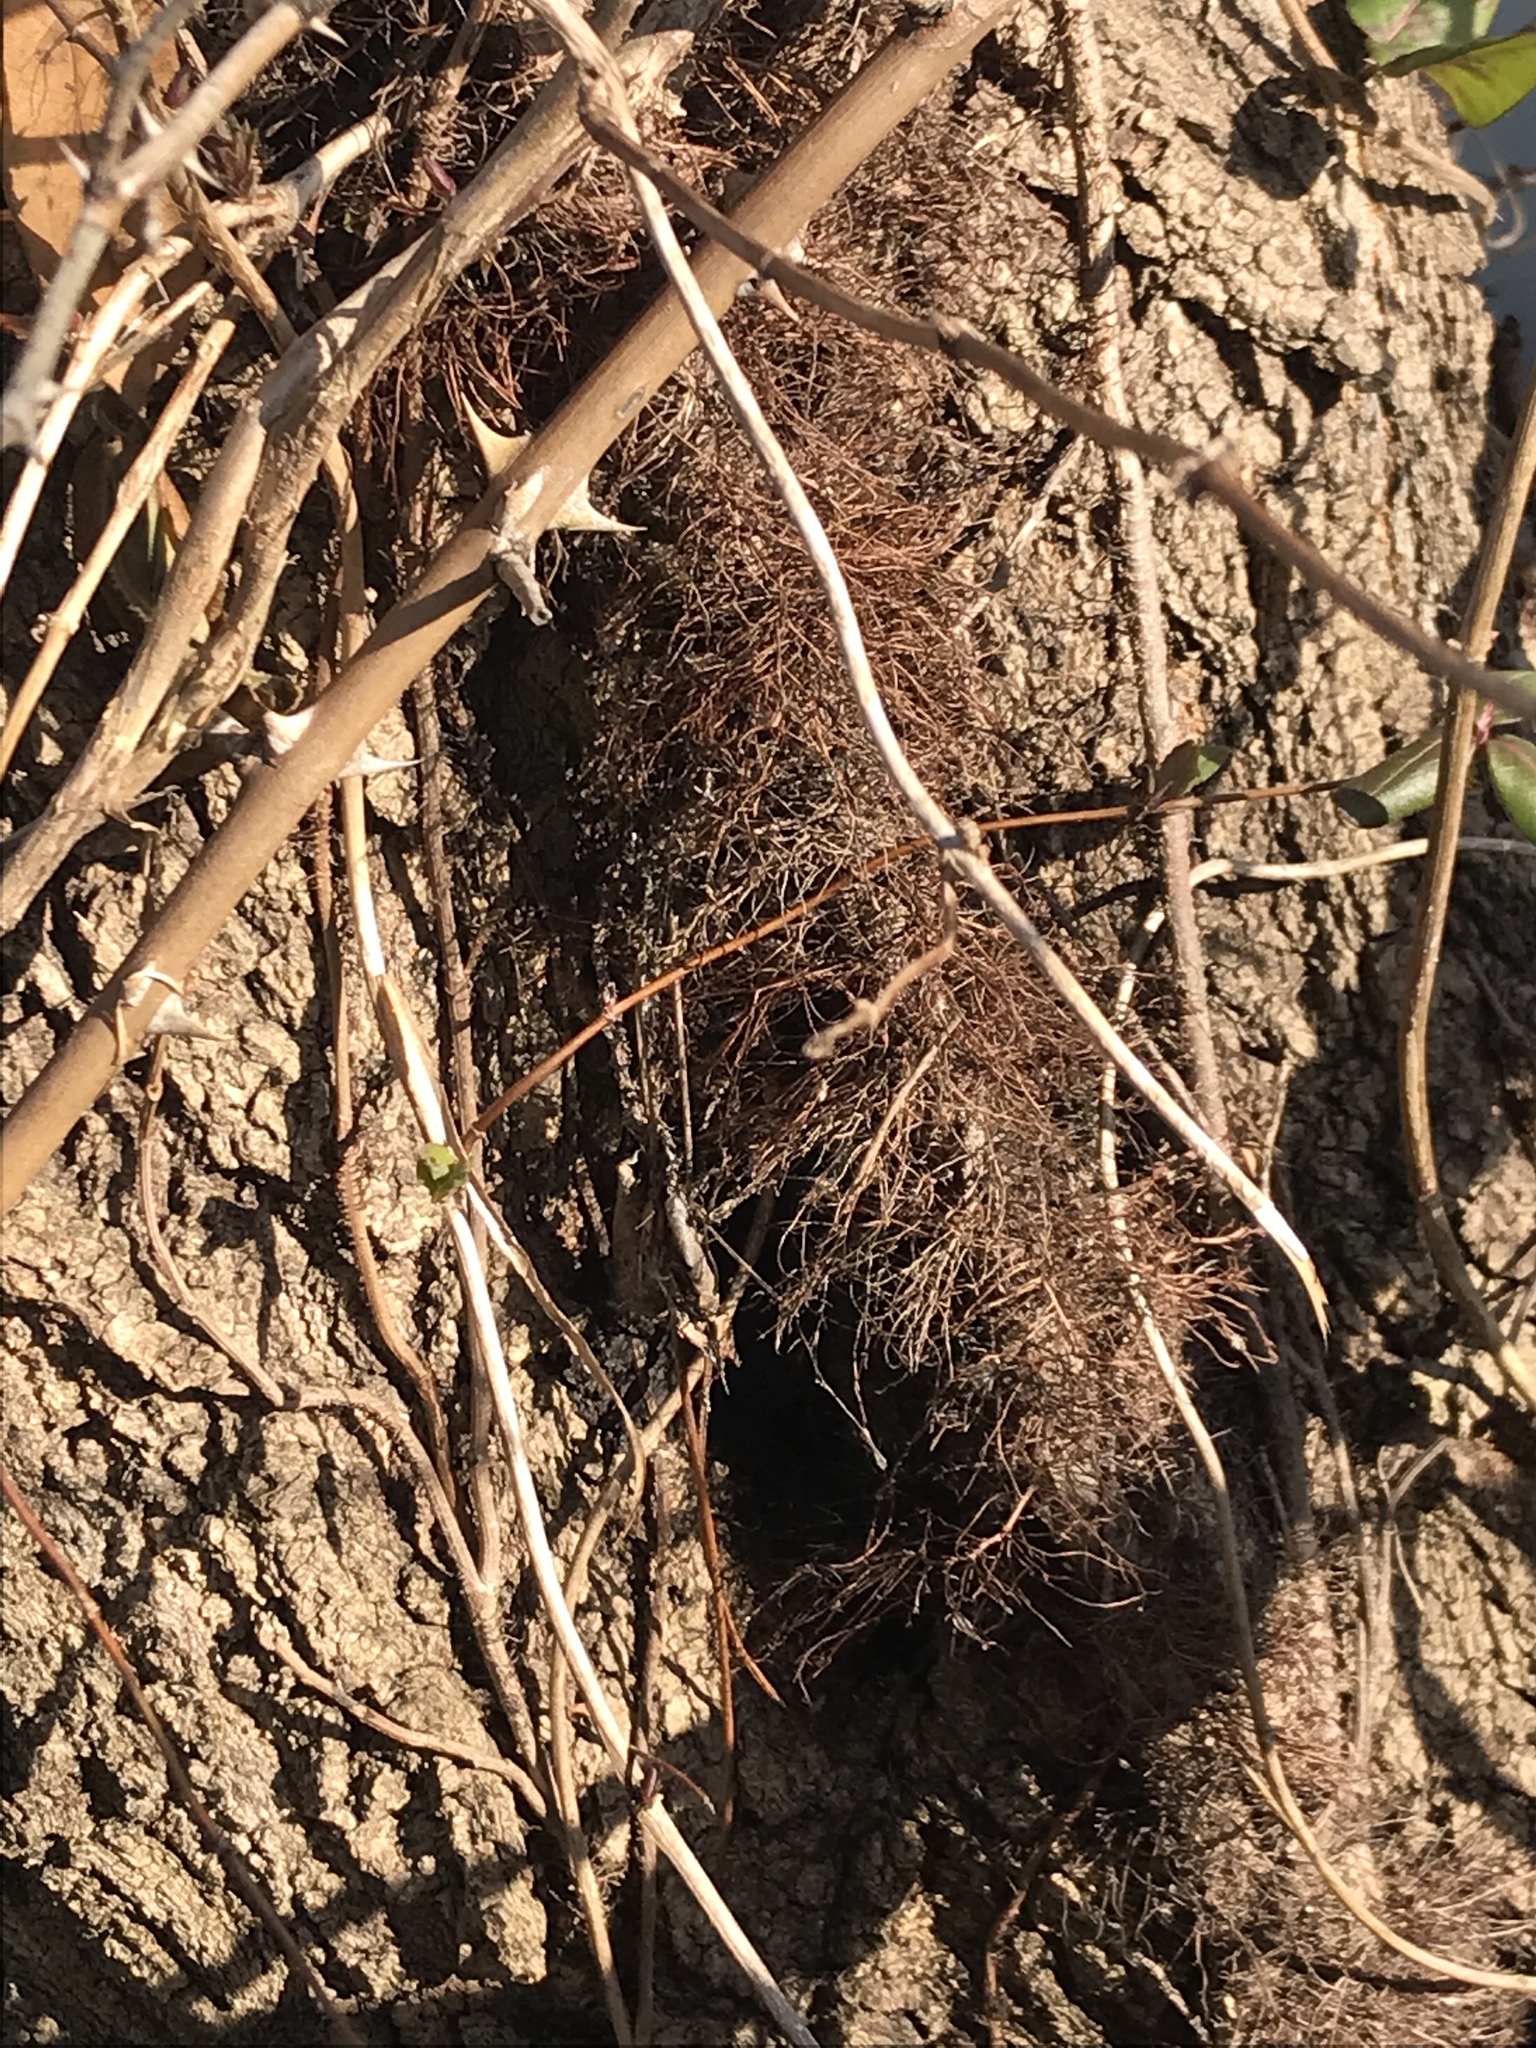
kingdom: Plantae
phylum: Tracheophyta
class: Magnoliopsida
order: Sapindales
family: Anacardiaceae
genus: Toxicodendron
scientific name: Toxicodendron radicans
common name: Poison ivy
